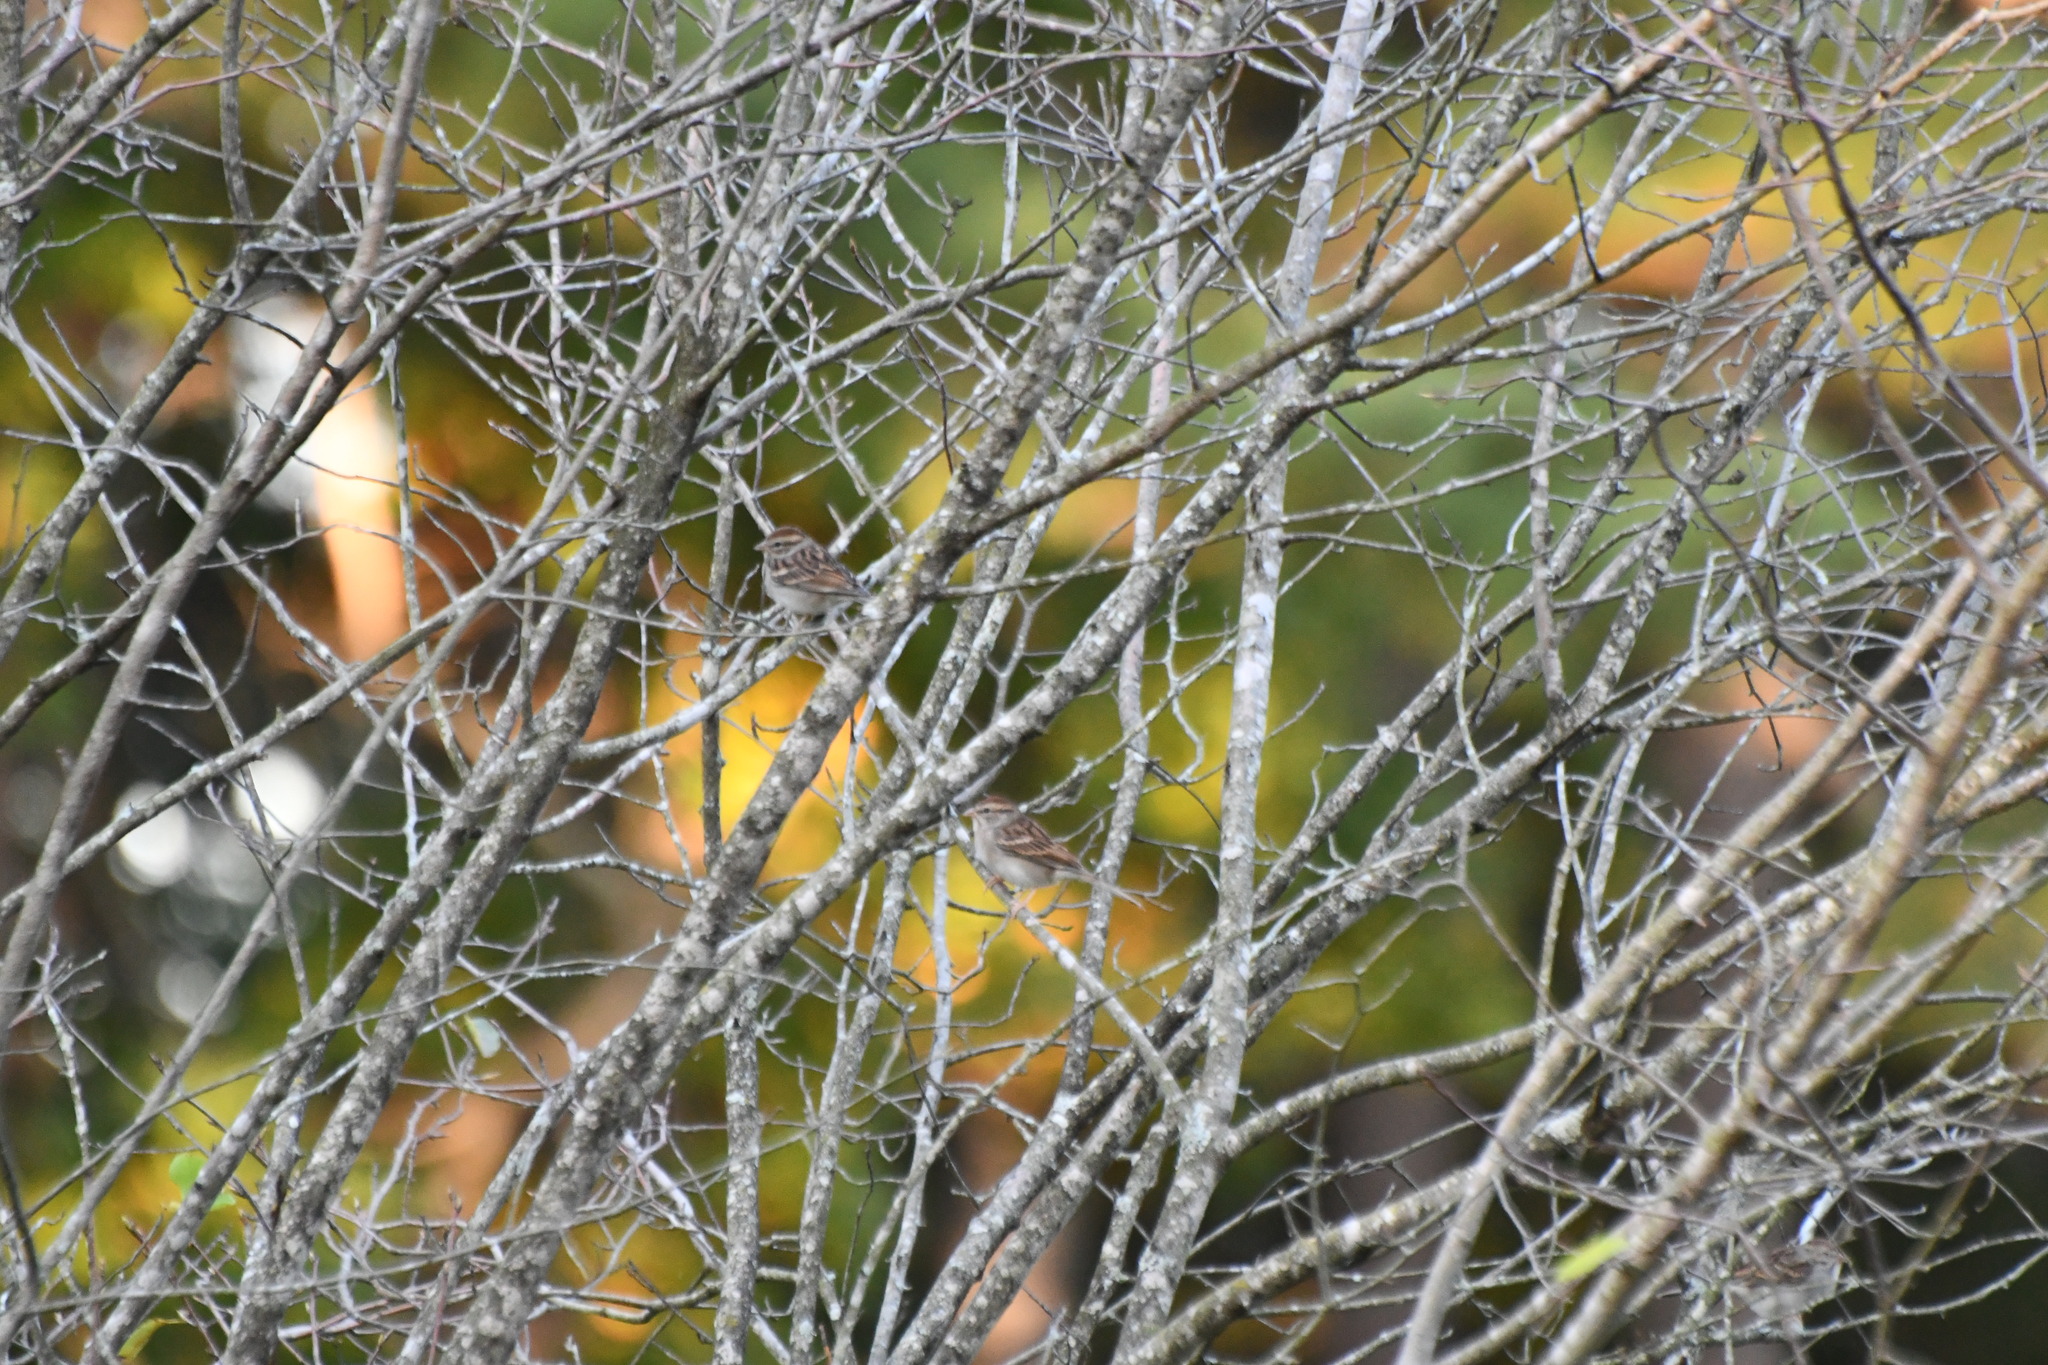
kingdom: Animalia
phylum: Chordata
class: Aves
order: Passeriformes
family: Passerellidae
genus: Spizella
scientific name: Spizella passerina
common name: Chipping sparrow
